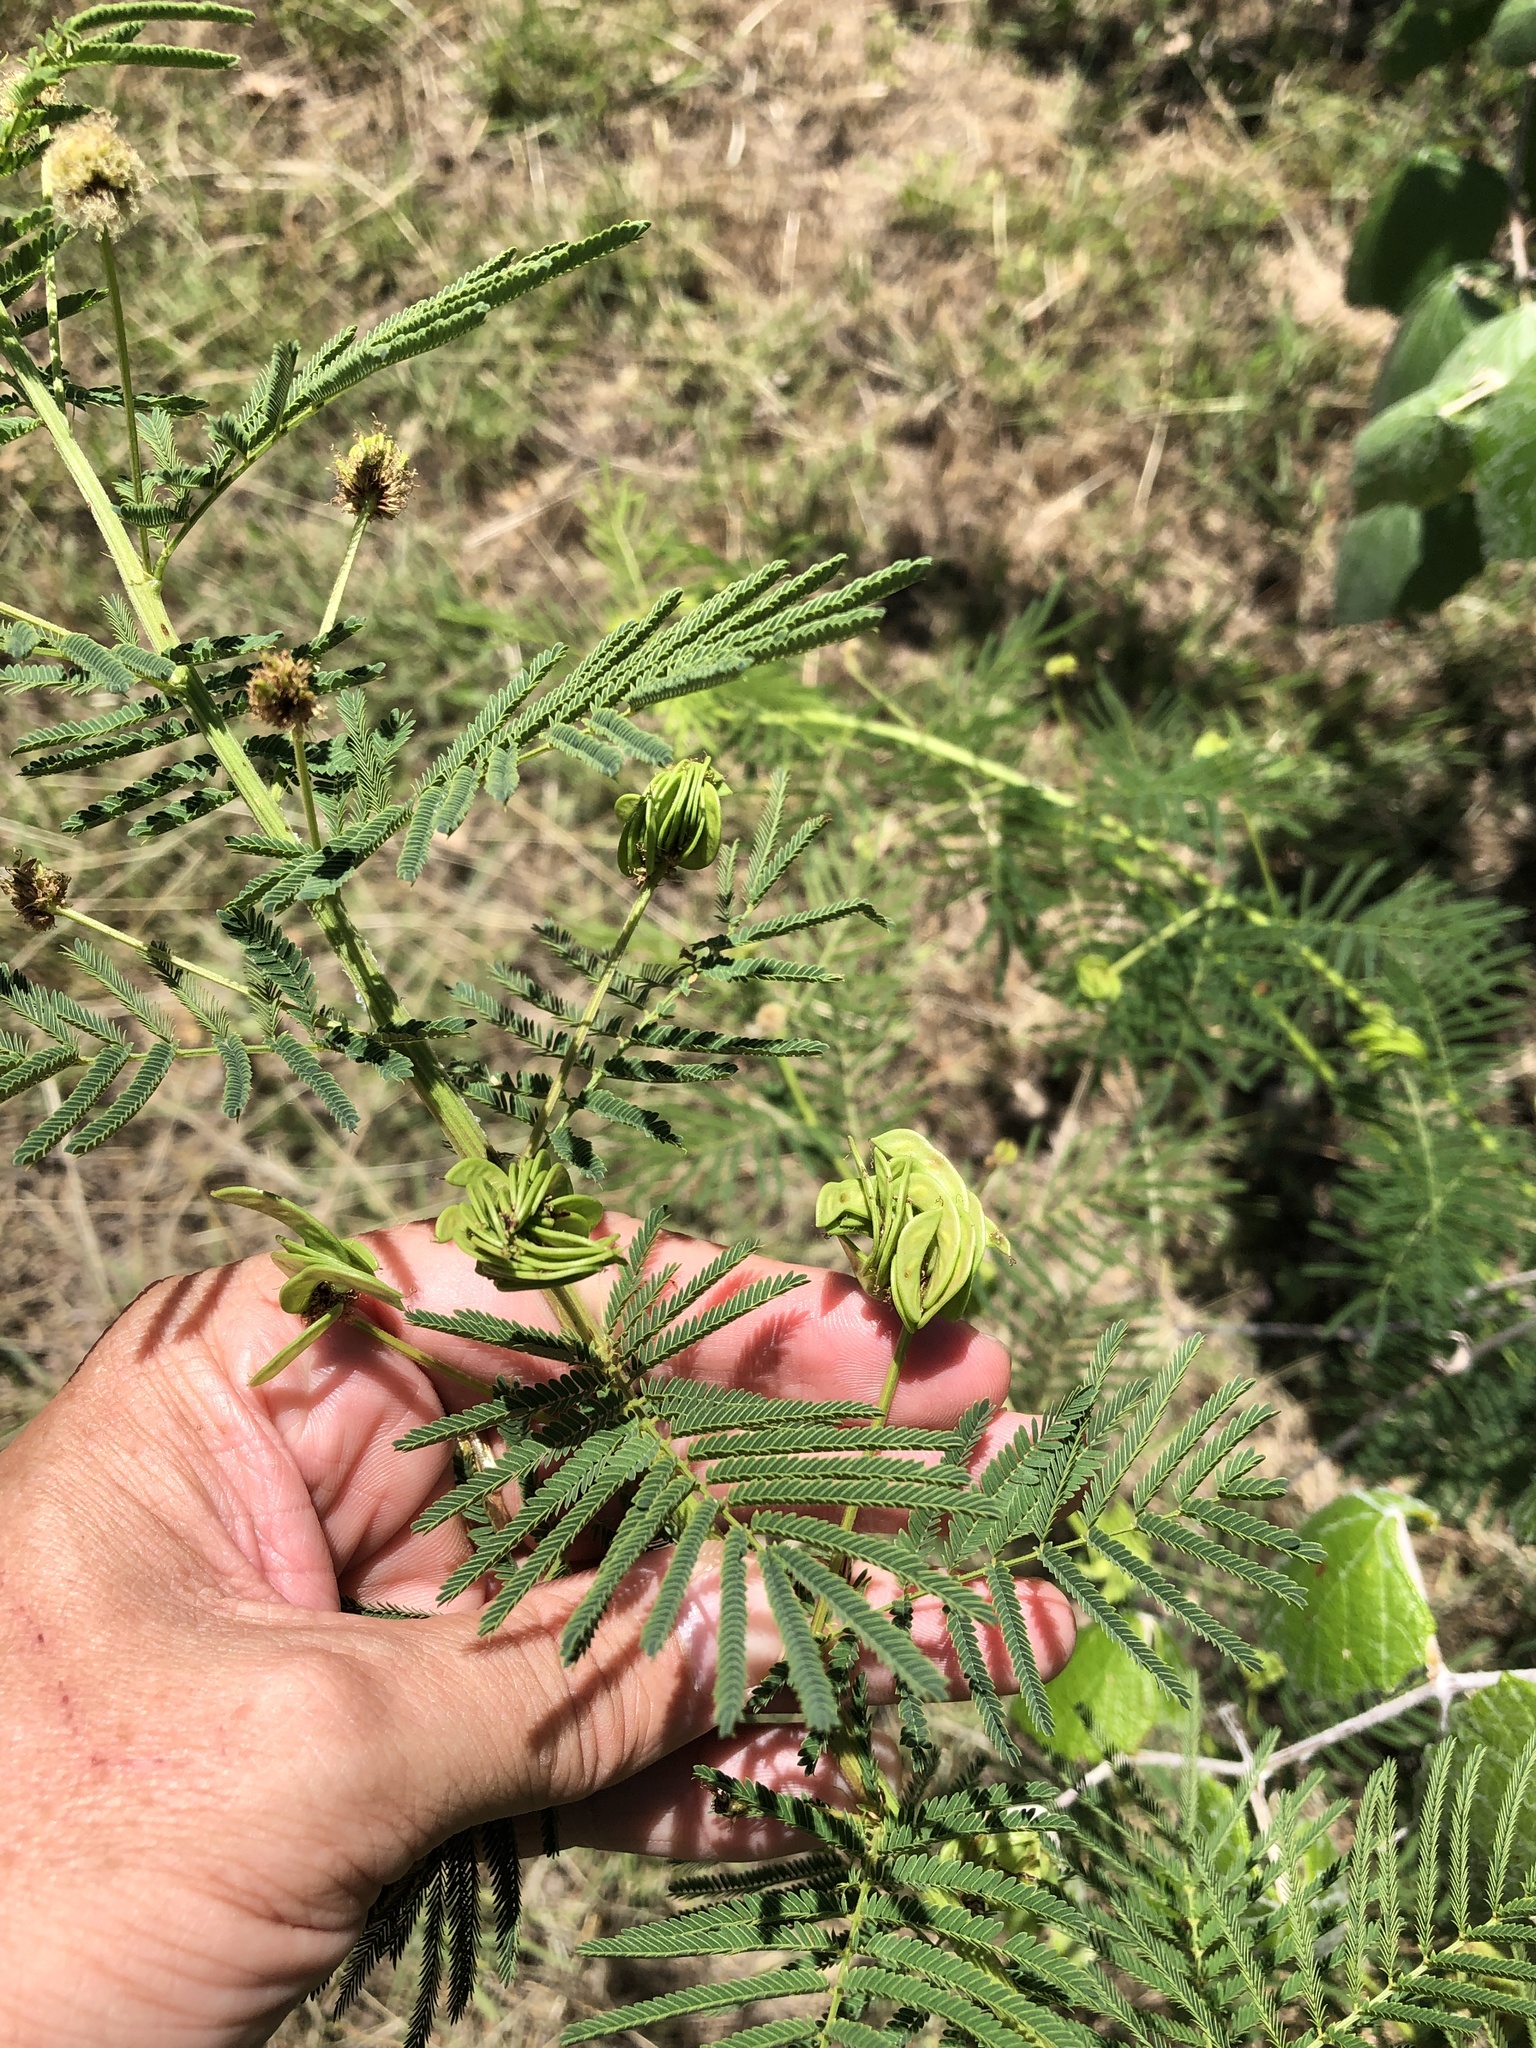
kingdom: Plantae
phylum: Tracheophyta
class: Magnoliopsida
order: Fabales
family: Fabaceae
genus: Desmanthus
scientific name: Desmanthus illinoensis
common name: Illinois bundle-flower
